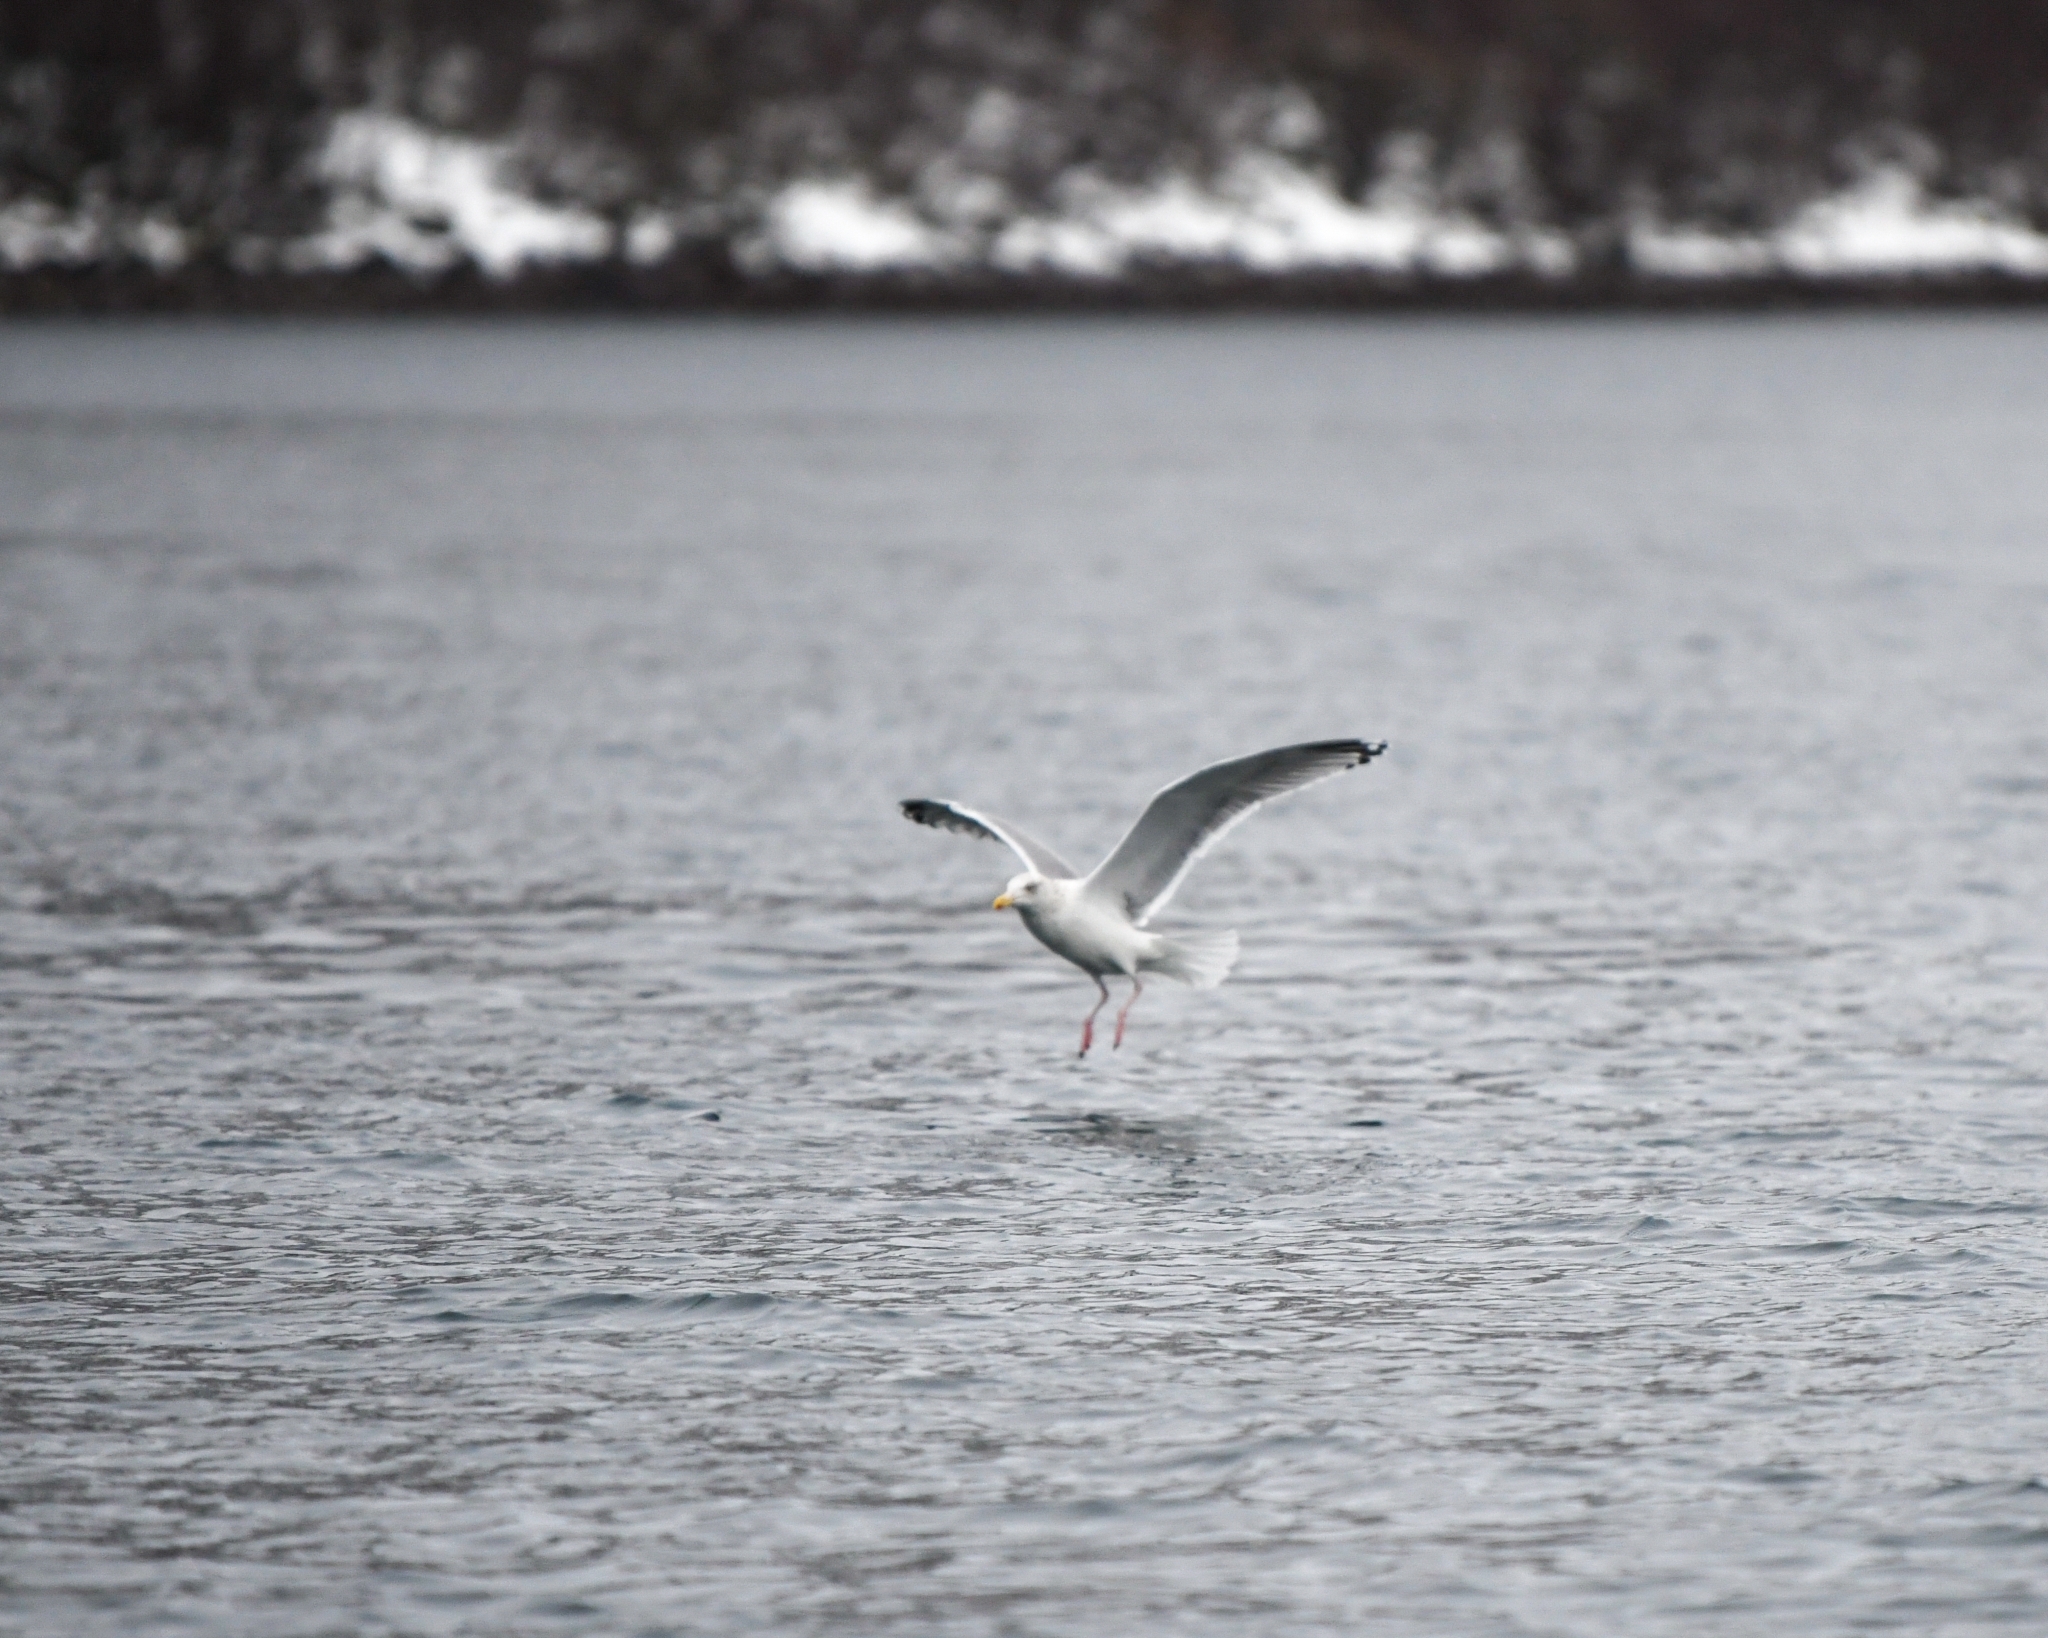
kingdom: Animalia
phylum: Chordata
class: Aves
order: Charadriiformes
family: Laridae
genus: Larus
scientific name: Larus argentatus
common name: Herring gull
